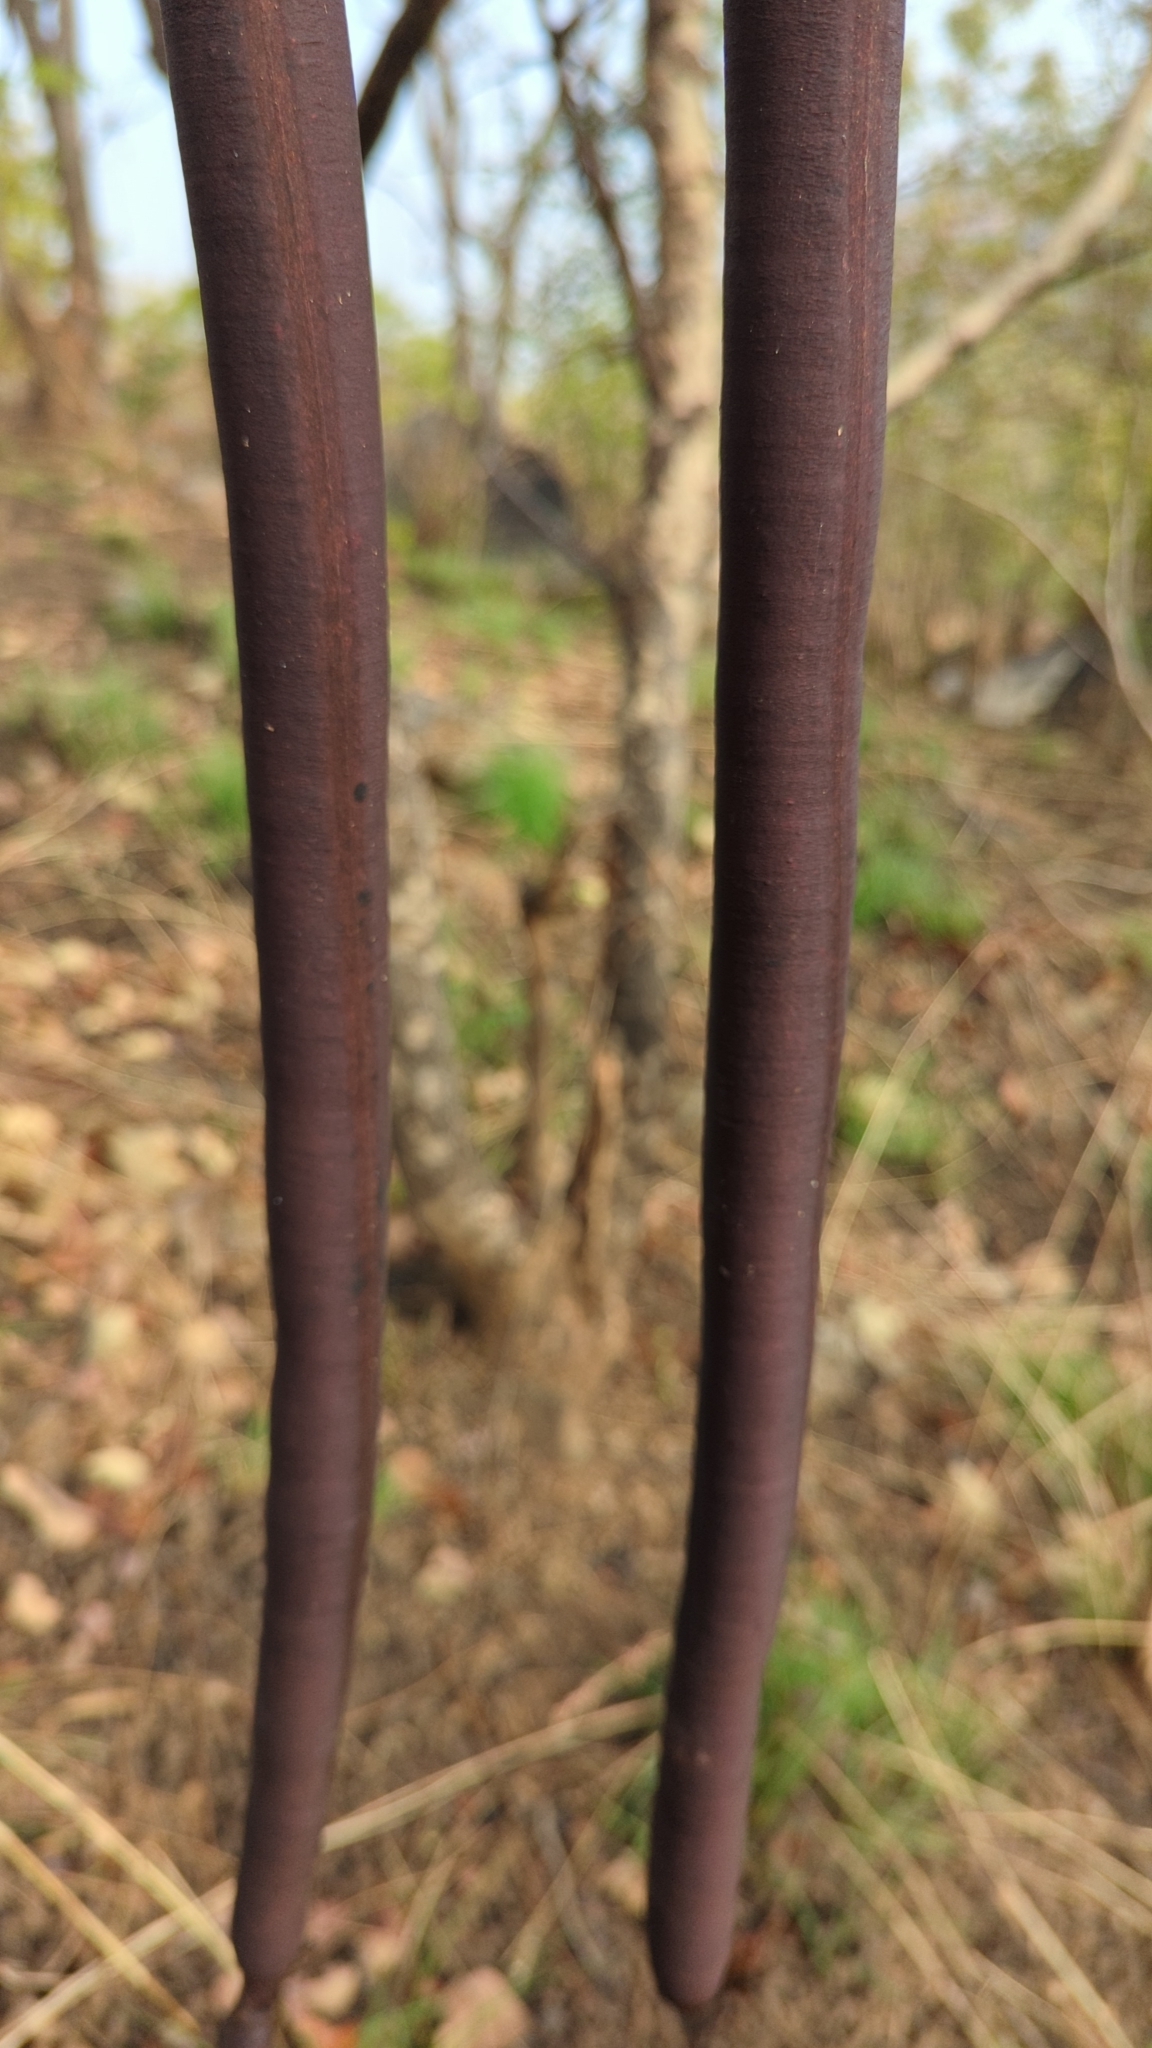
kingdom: Plantae
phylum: Tracheophyta
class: Magnoliopsida
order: Fabales
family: Fabaceae
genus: Cassia
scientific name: Cassia fistula
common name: Golden shower
